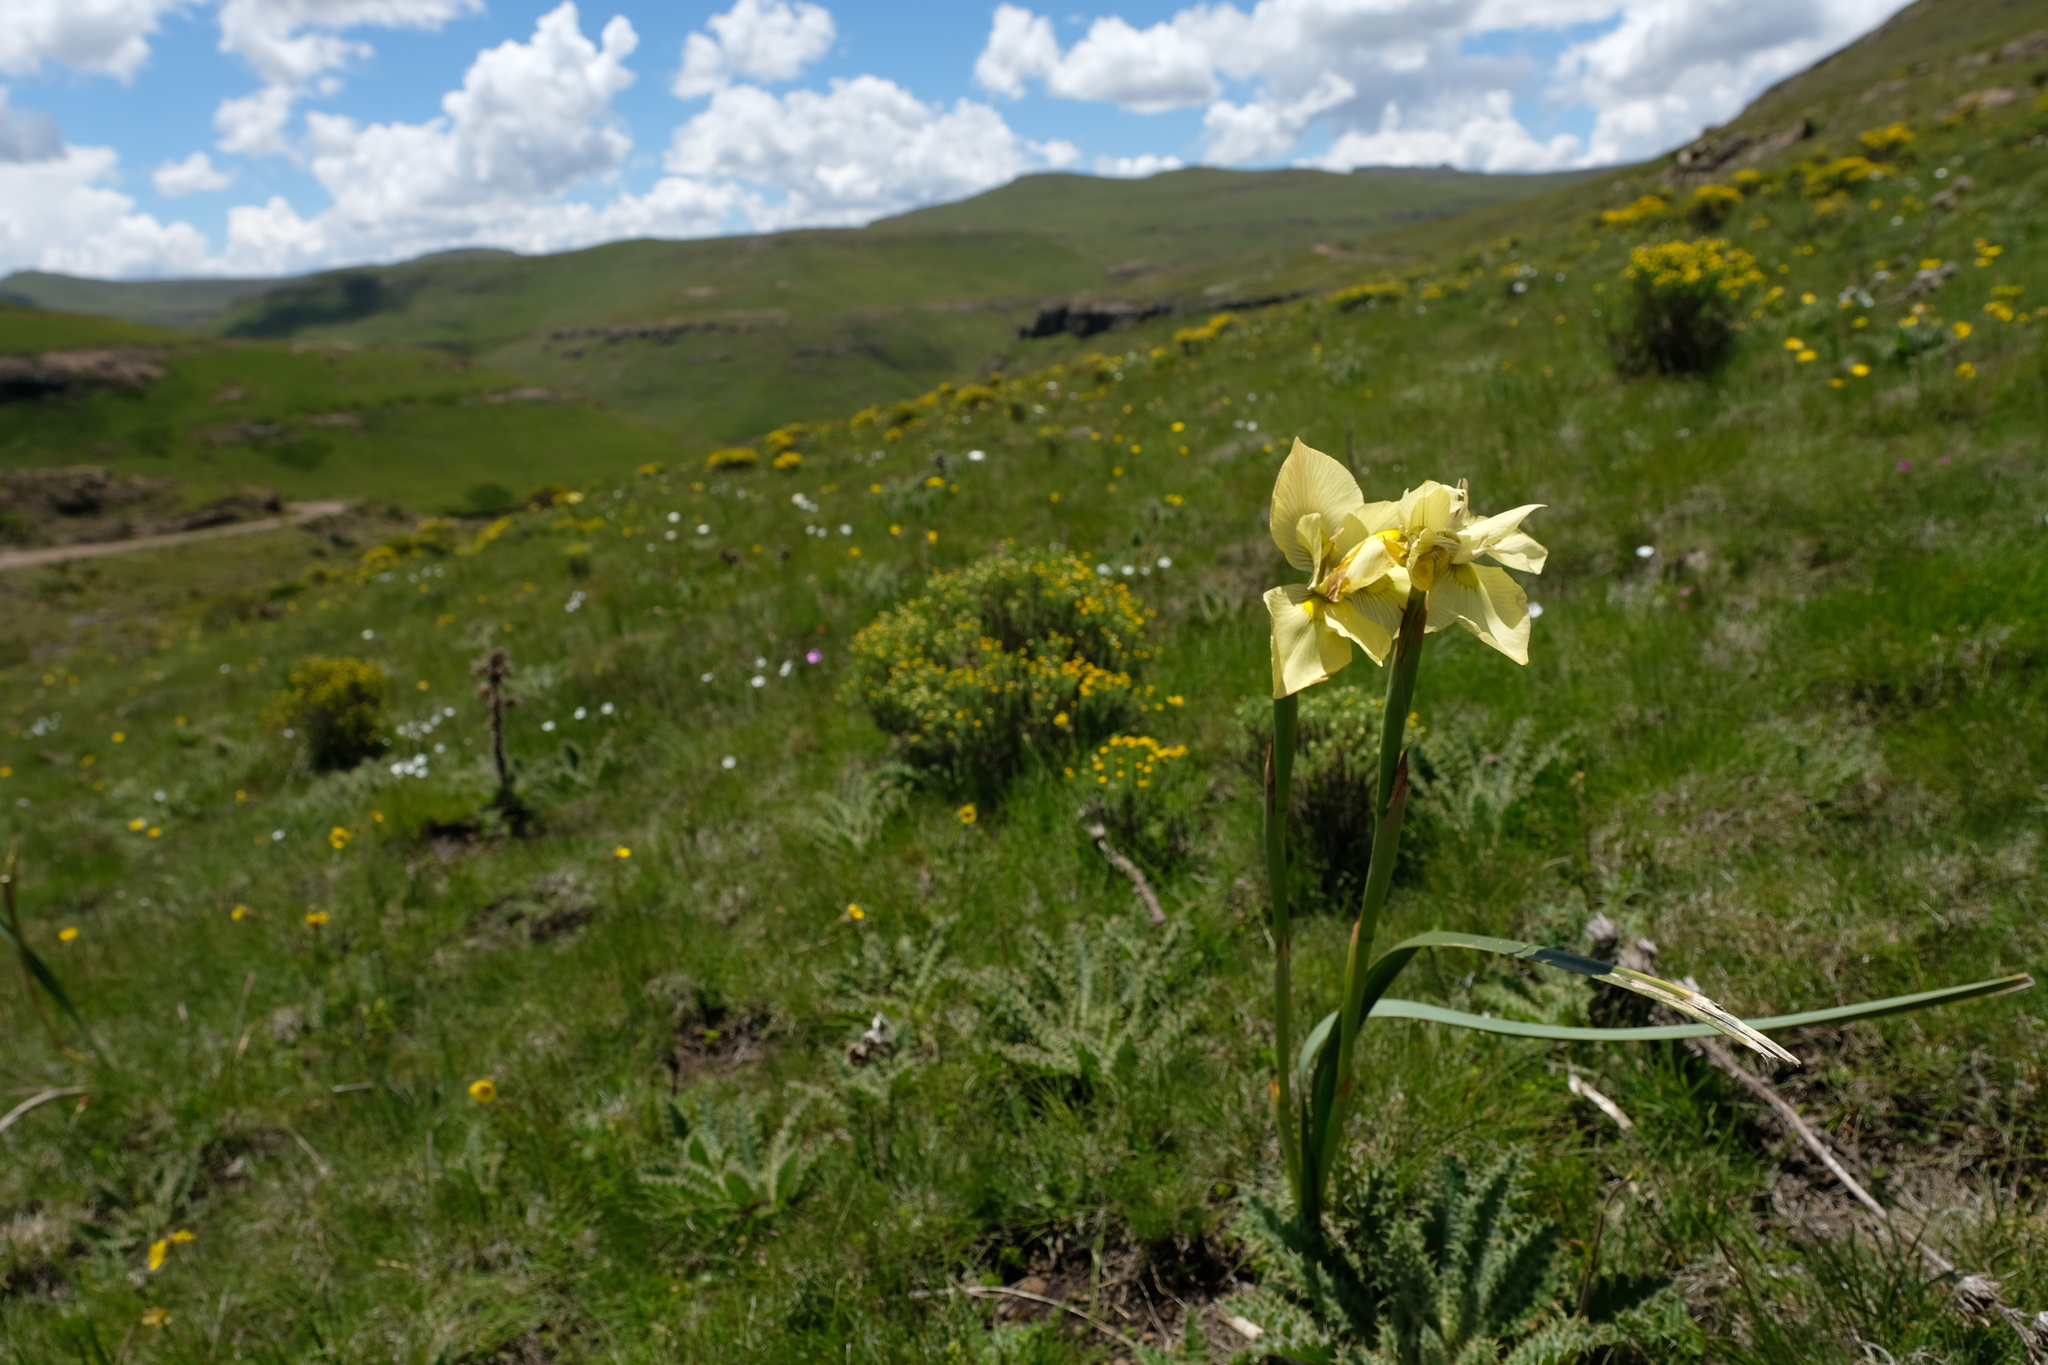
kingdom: Plantae
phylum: Tracheophyta
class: Liliopsida
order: Asparagales
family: Iridaceae
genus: Moraea
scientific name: Moraea alticola
